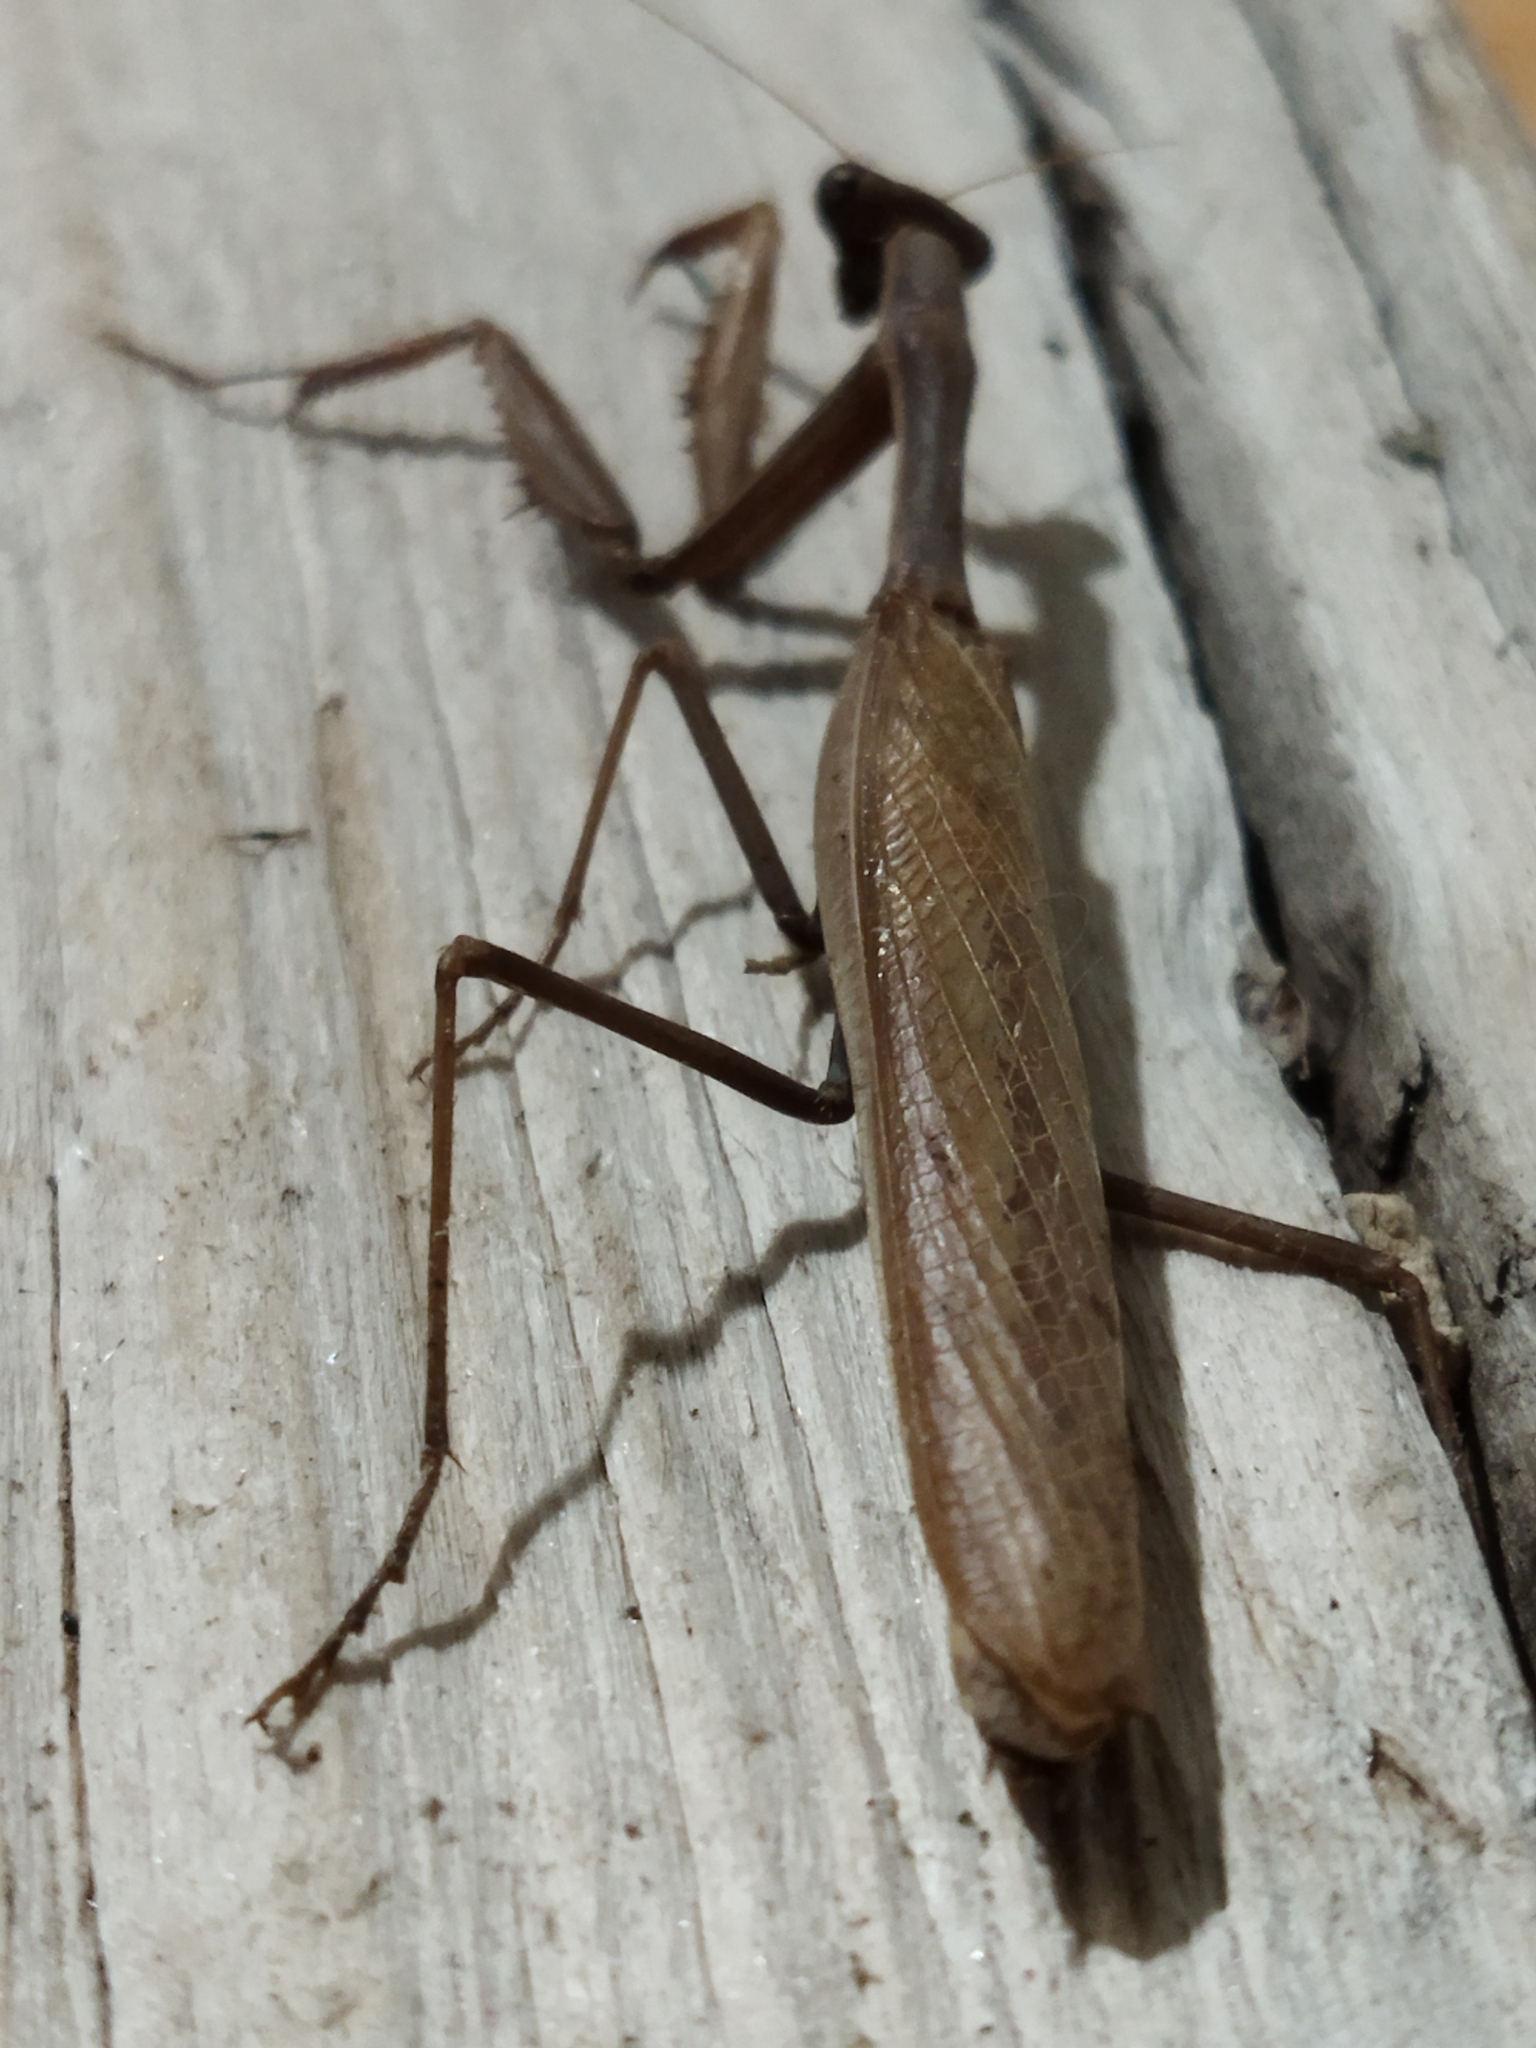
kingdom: Animalia
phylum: Arthropoda
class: Insecta
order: Mantodea
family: Eremiaphilidae
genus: Iris
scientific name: Iris oratoria
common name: Mediterranean mantis
